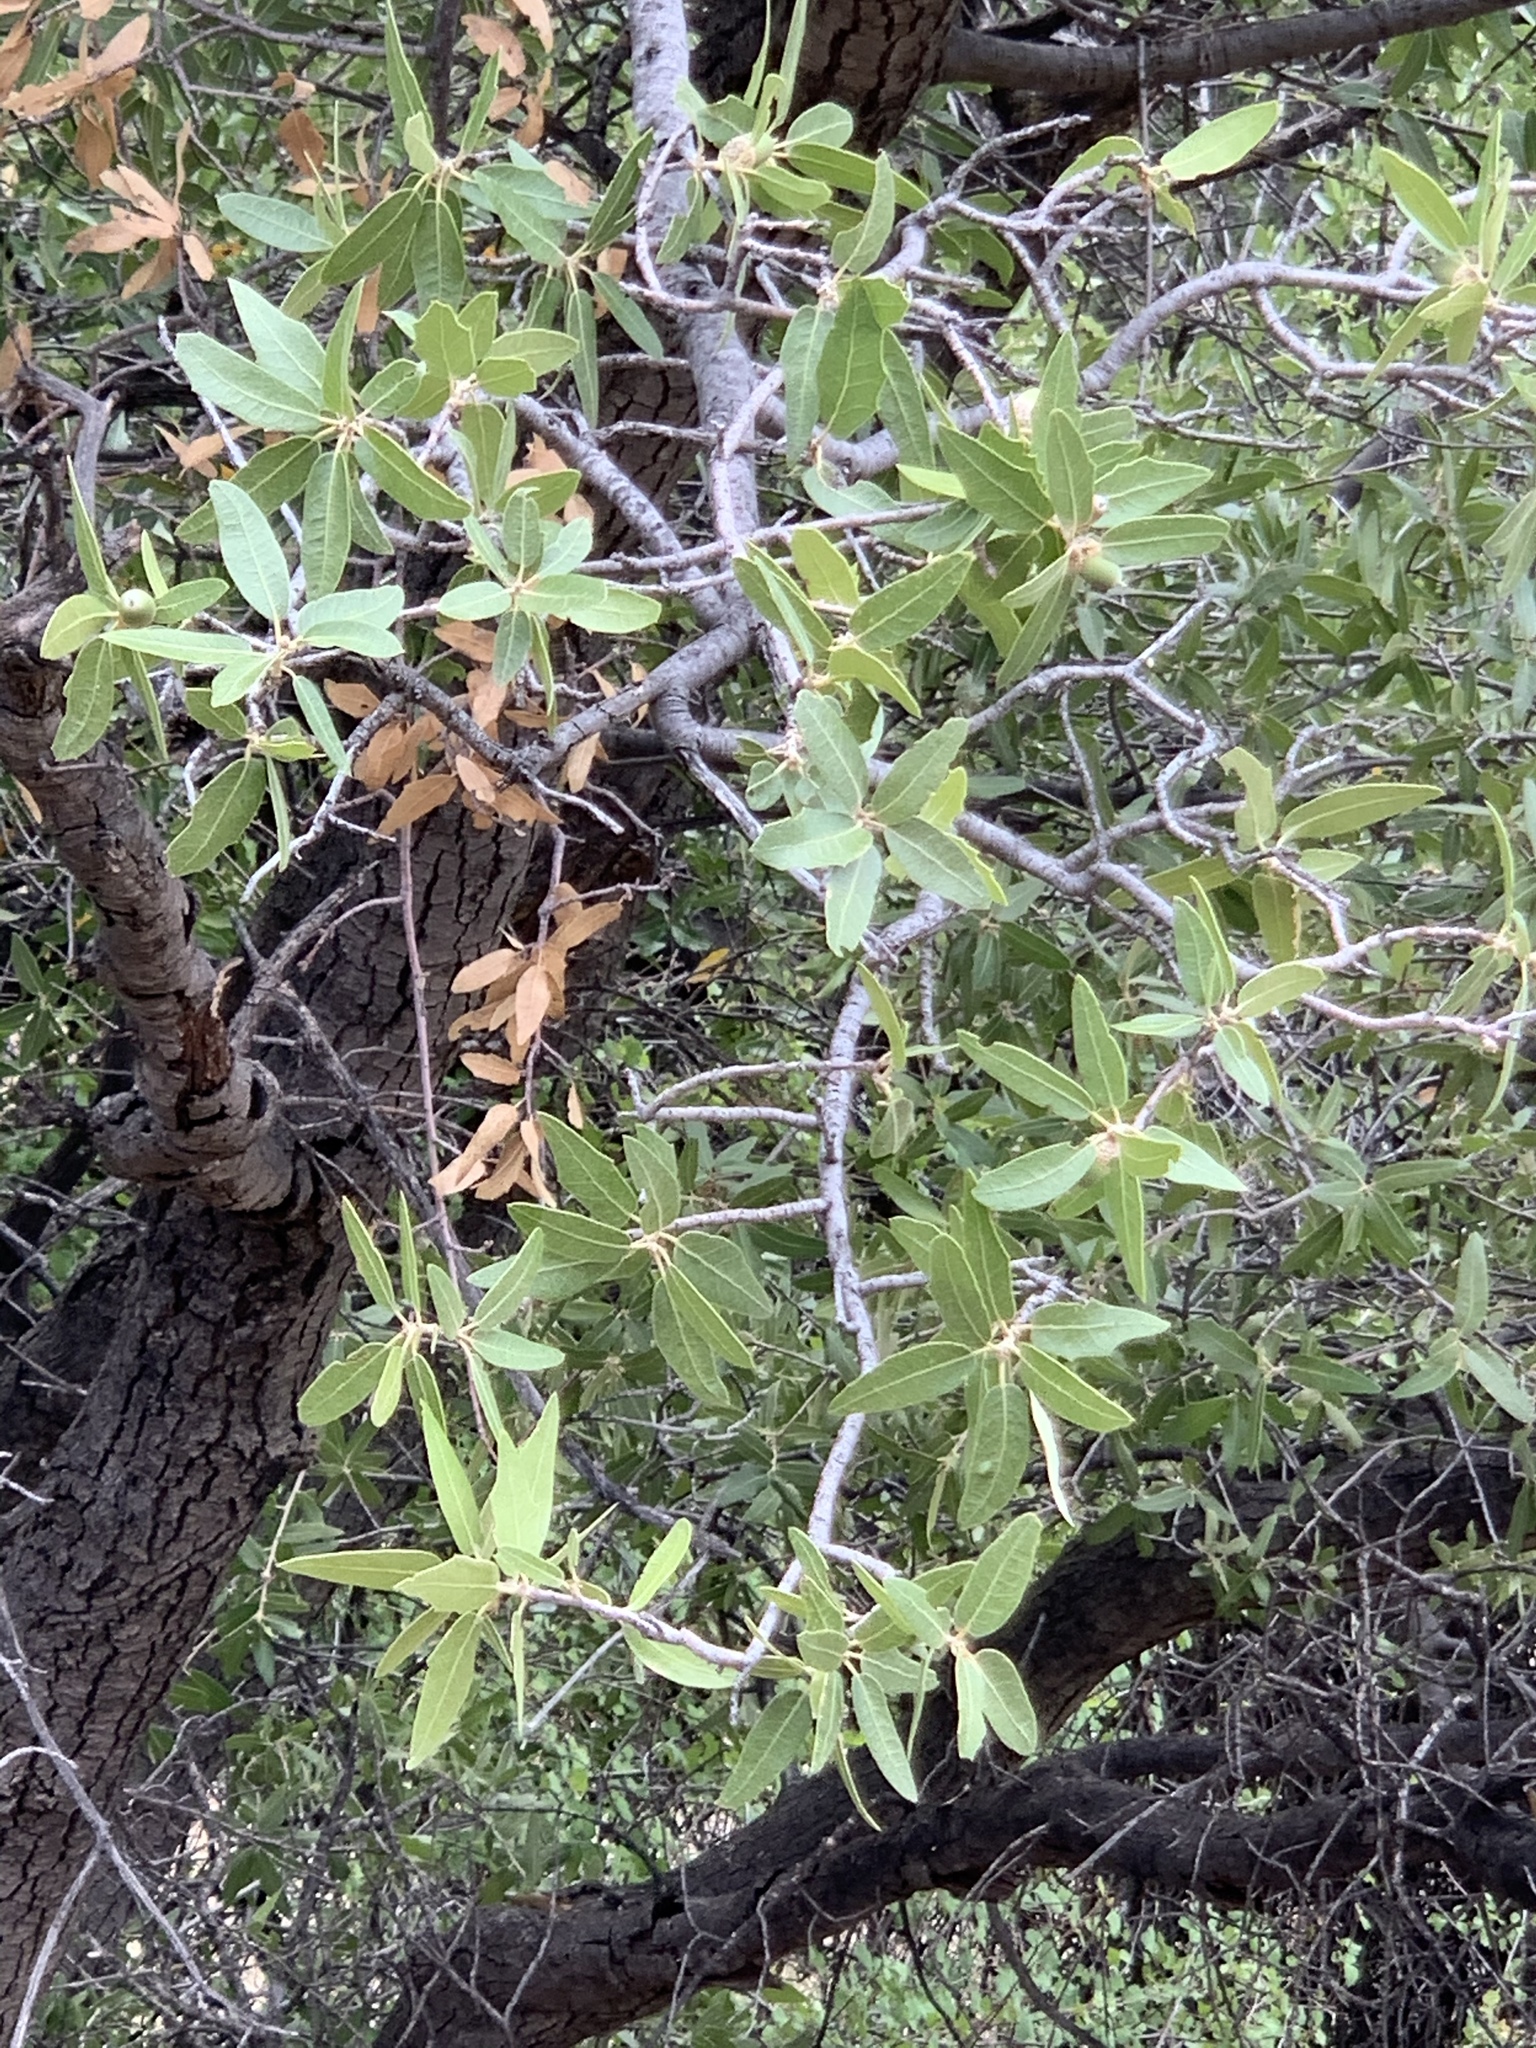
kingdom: Plantae
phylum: Tracheophyta
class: Magnoliopsida
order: Fagales
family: Fagaceae
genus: Quercus
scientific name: Quercus emoryi
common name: Emory oak
